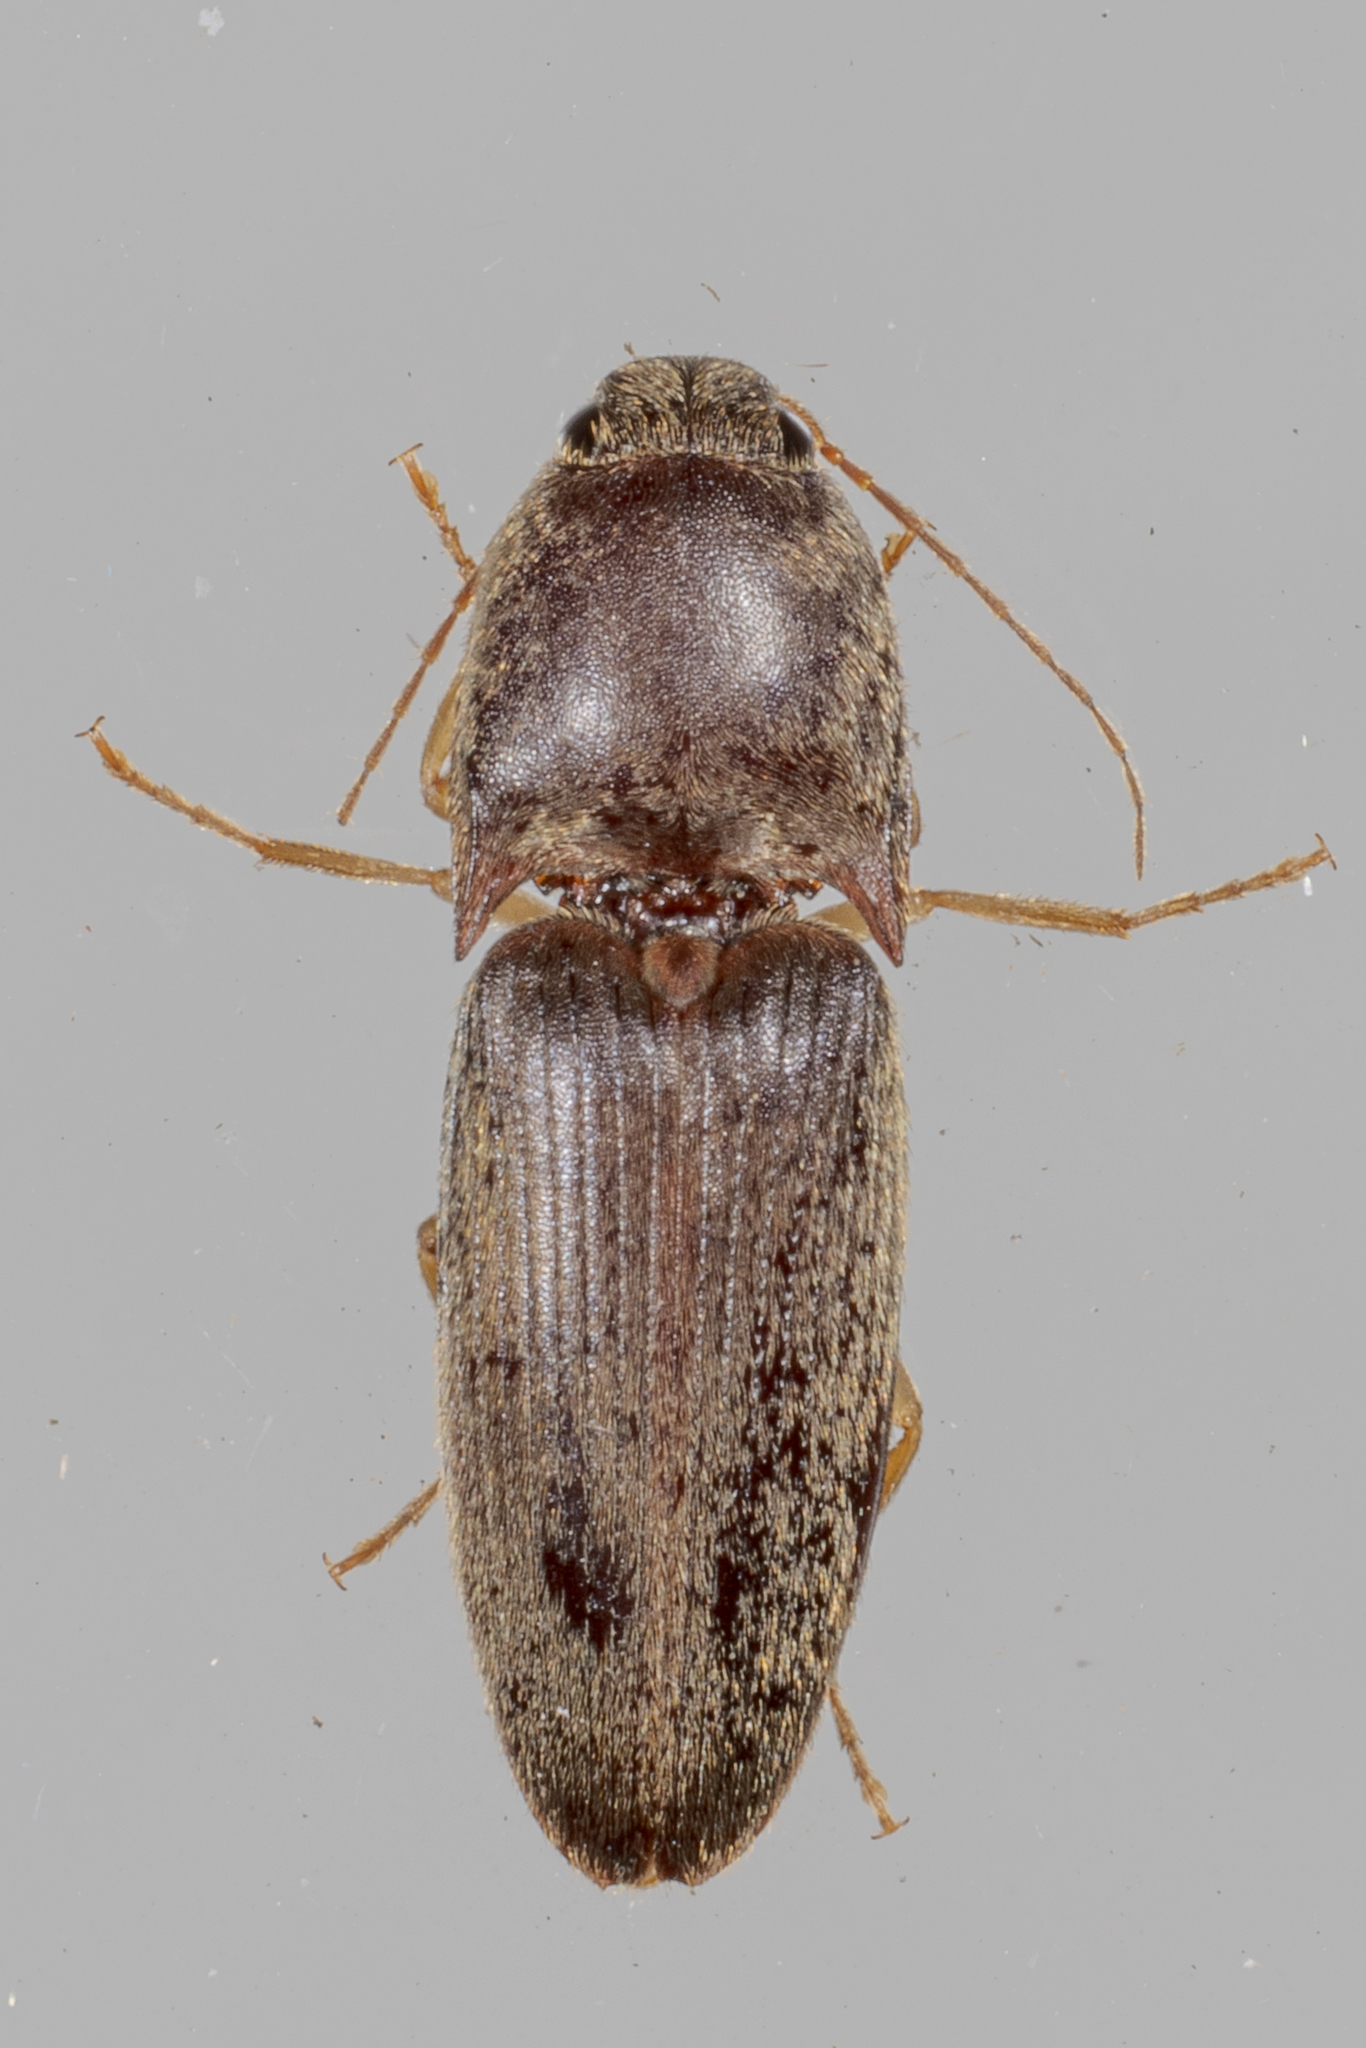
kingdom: Animalia
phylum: Arthropoda
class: Insecta
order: Coleoptera
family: Elateridae
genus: Conoderus
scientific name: Conoderus exsul
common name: Click beetle
